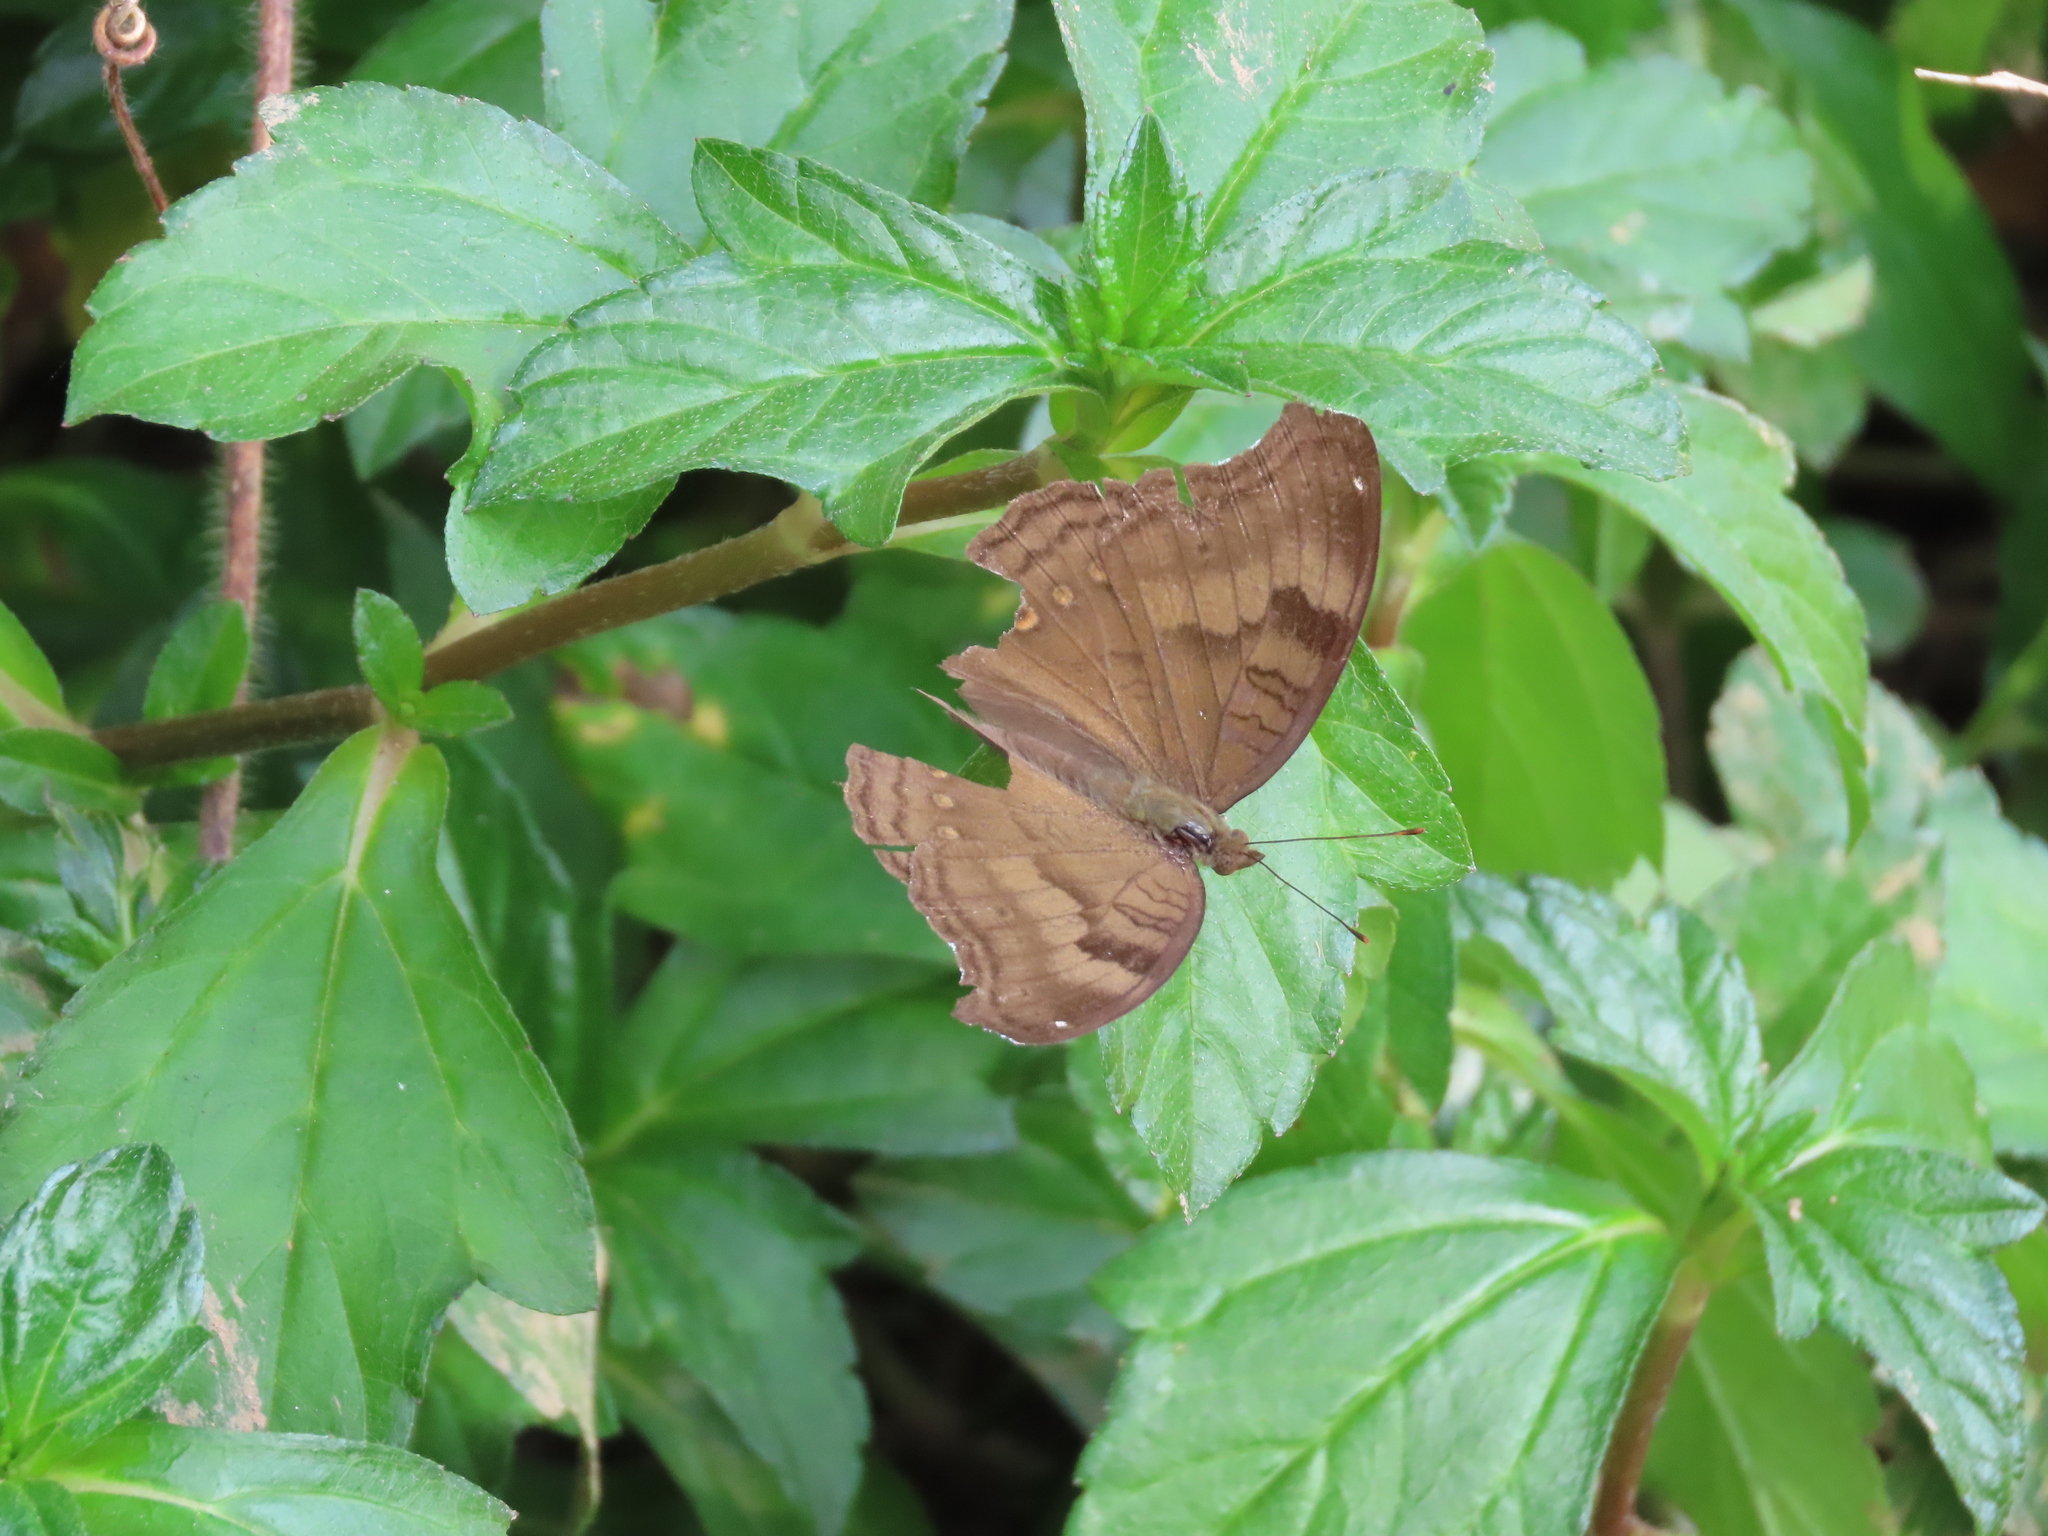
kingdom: Animalia
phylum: Arthropoda
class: Insecta
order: Lepidoptera
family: Nymphalidae
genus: Junonia
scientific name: Junonia iphita
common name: Chocolate pansy
